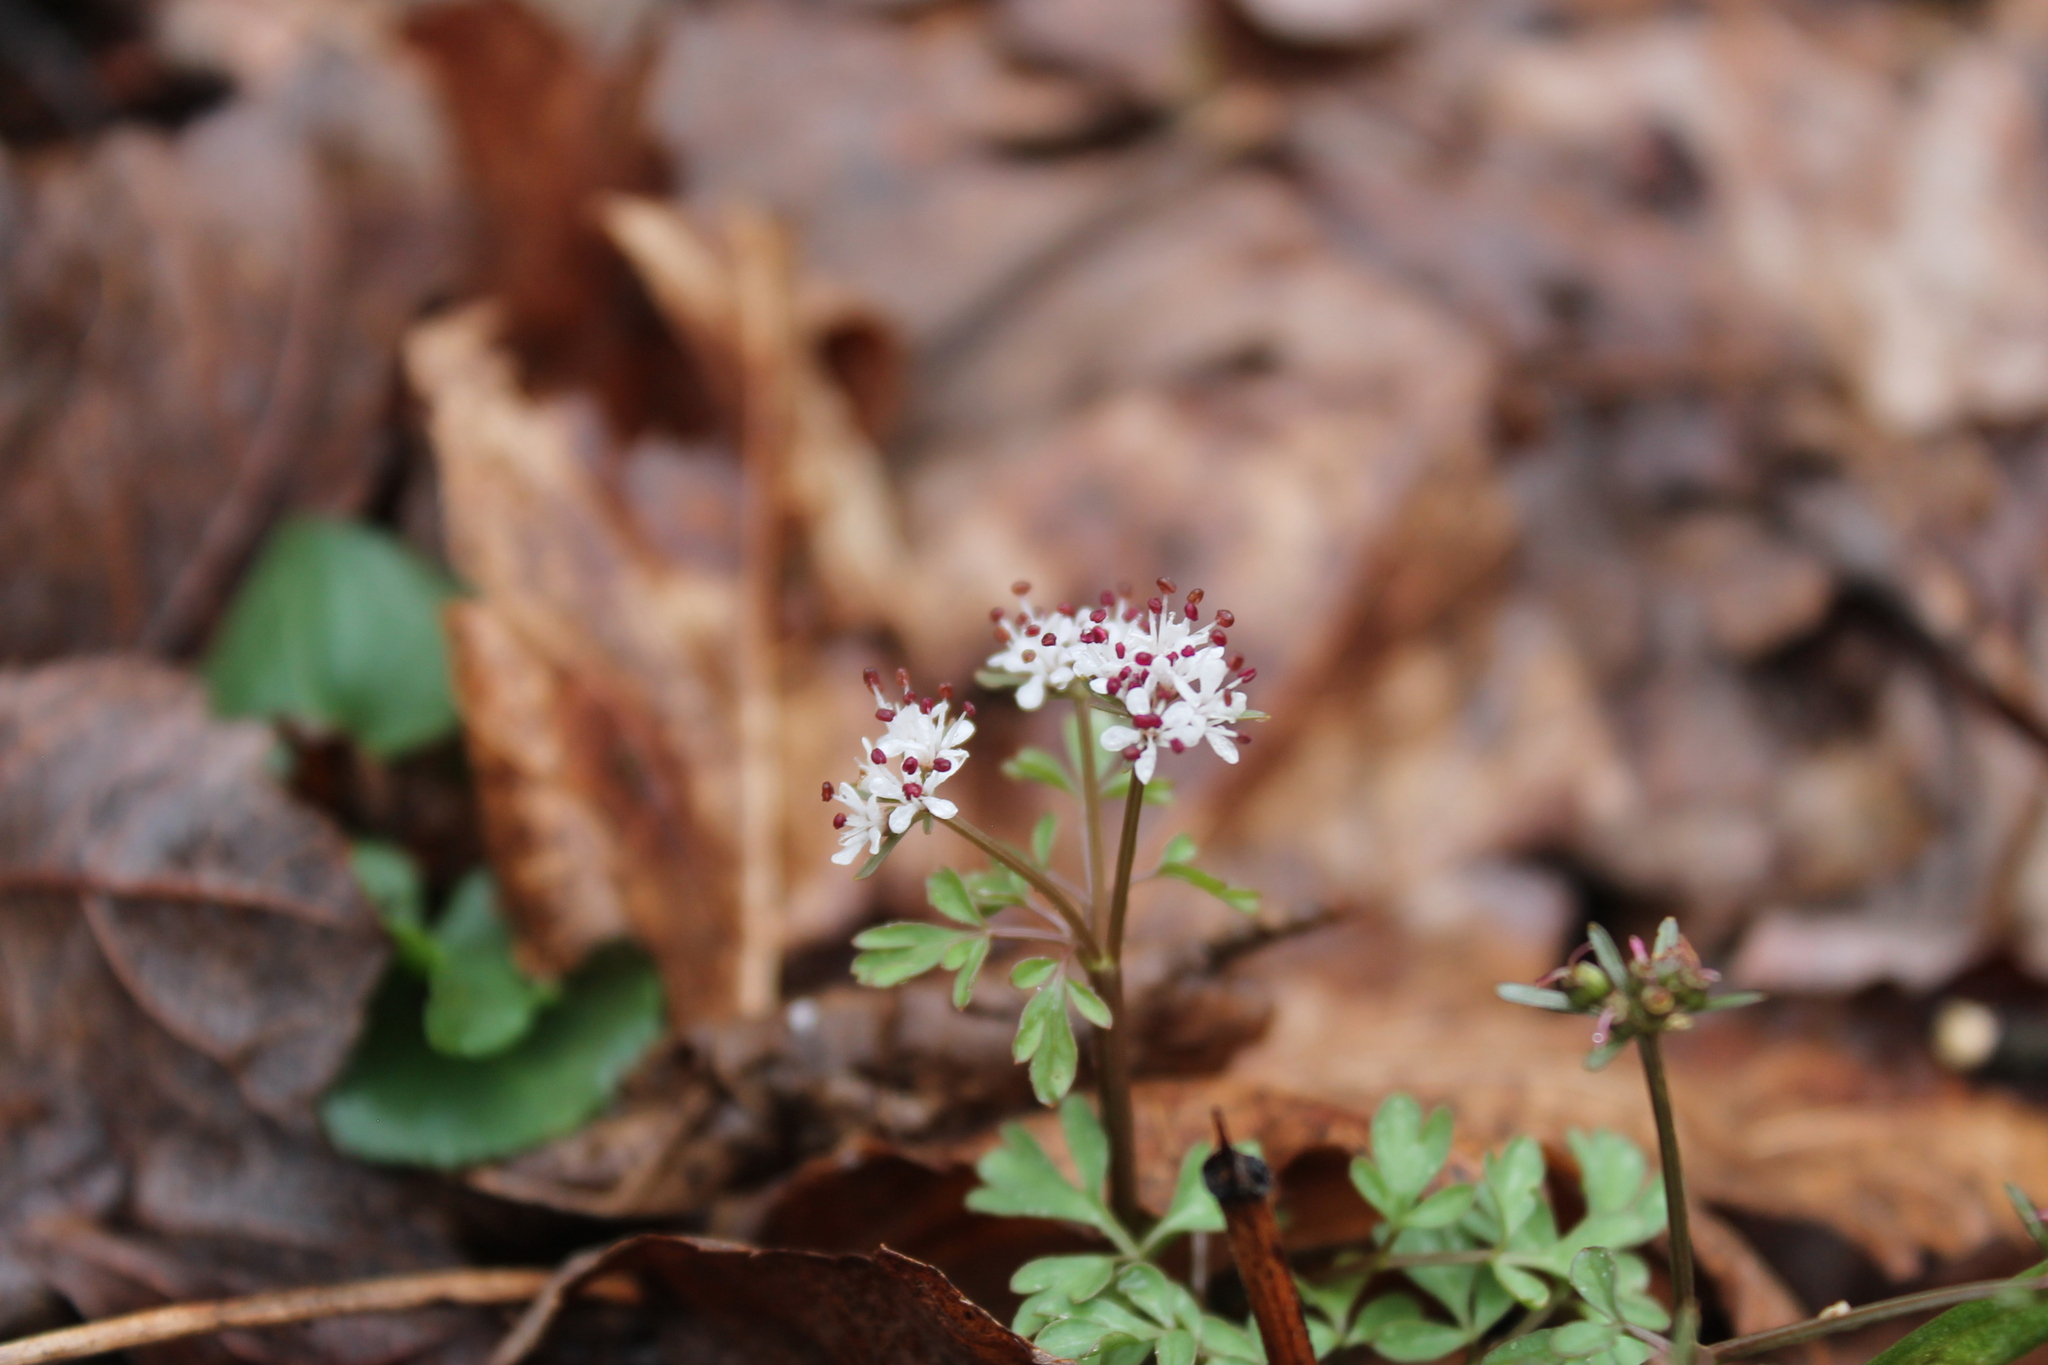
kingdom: Plantae
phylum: Tracheophyta
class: Magnoliopsida
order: Apiales
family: Apiaceae
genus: Erigenia
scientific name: Erigenia bulbosa
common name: Pepper-and-salt
